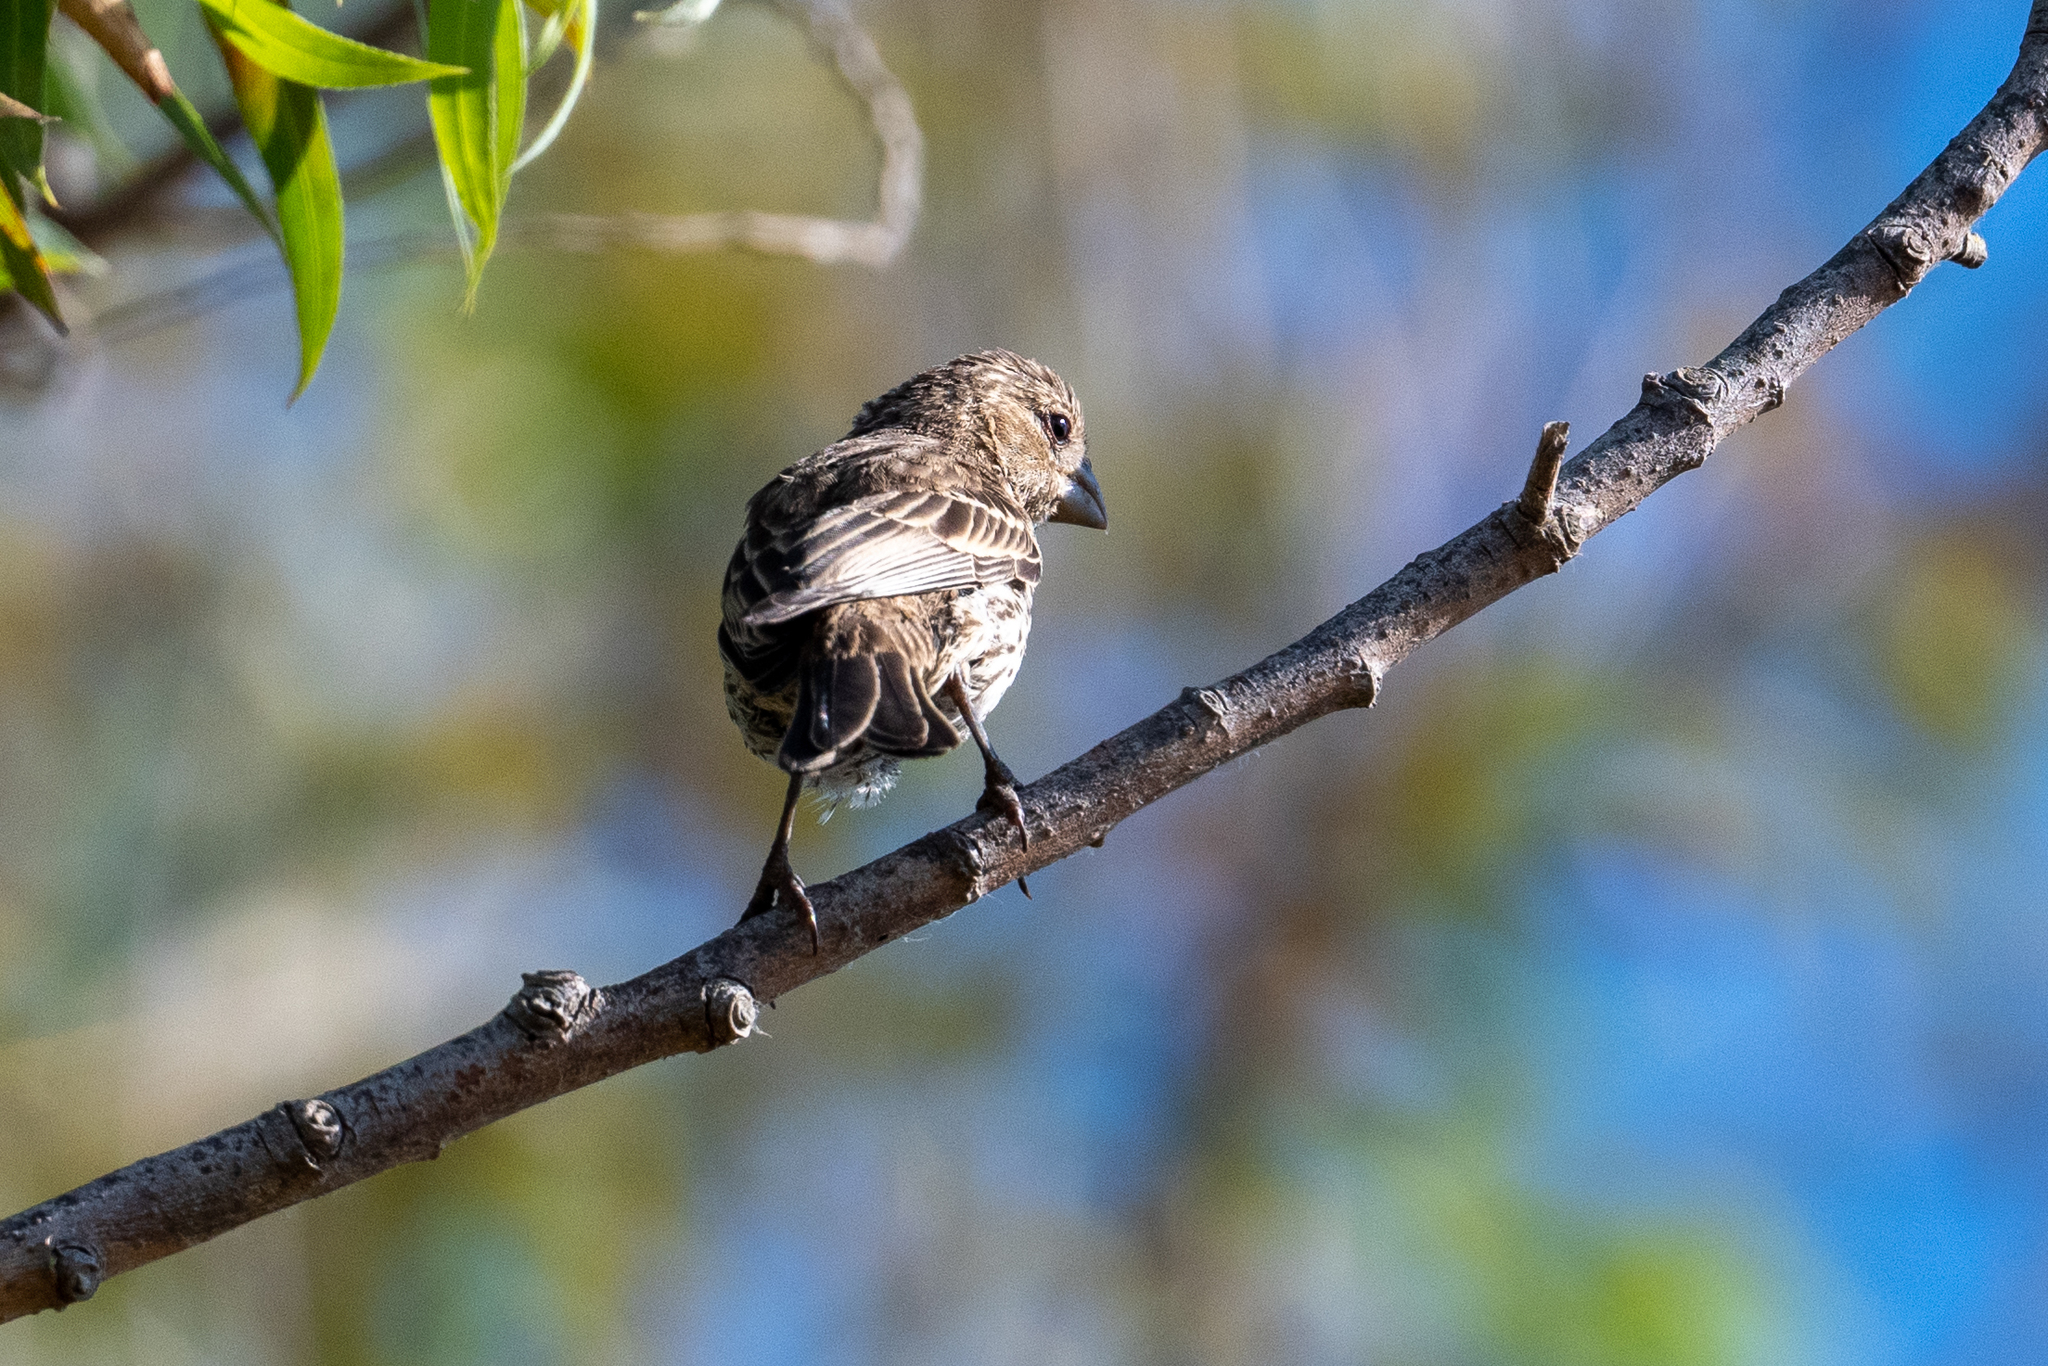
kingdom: Animalia
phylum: Chordata
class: Aves
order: Passeriformes
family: Fringillidae
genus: Haemorhous
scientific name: Haemorhous mexicanus
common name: House finch
